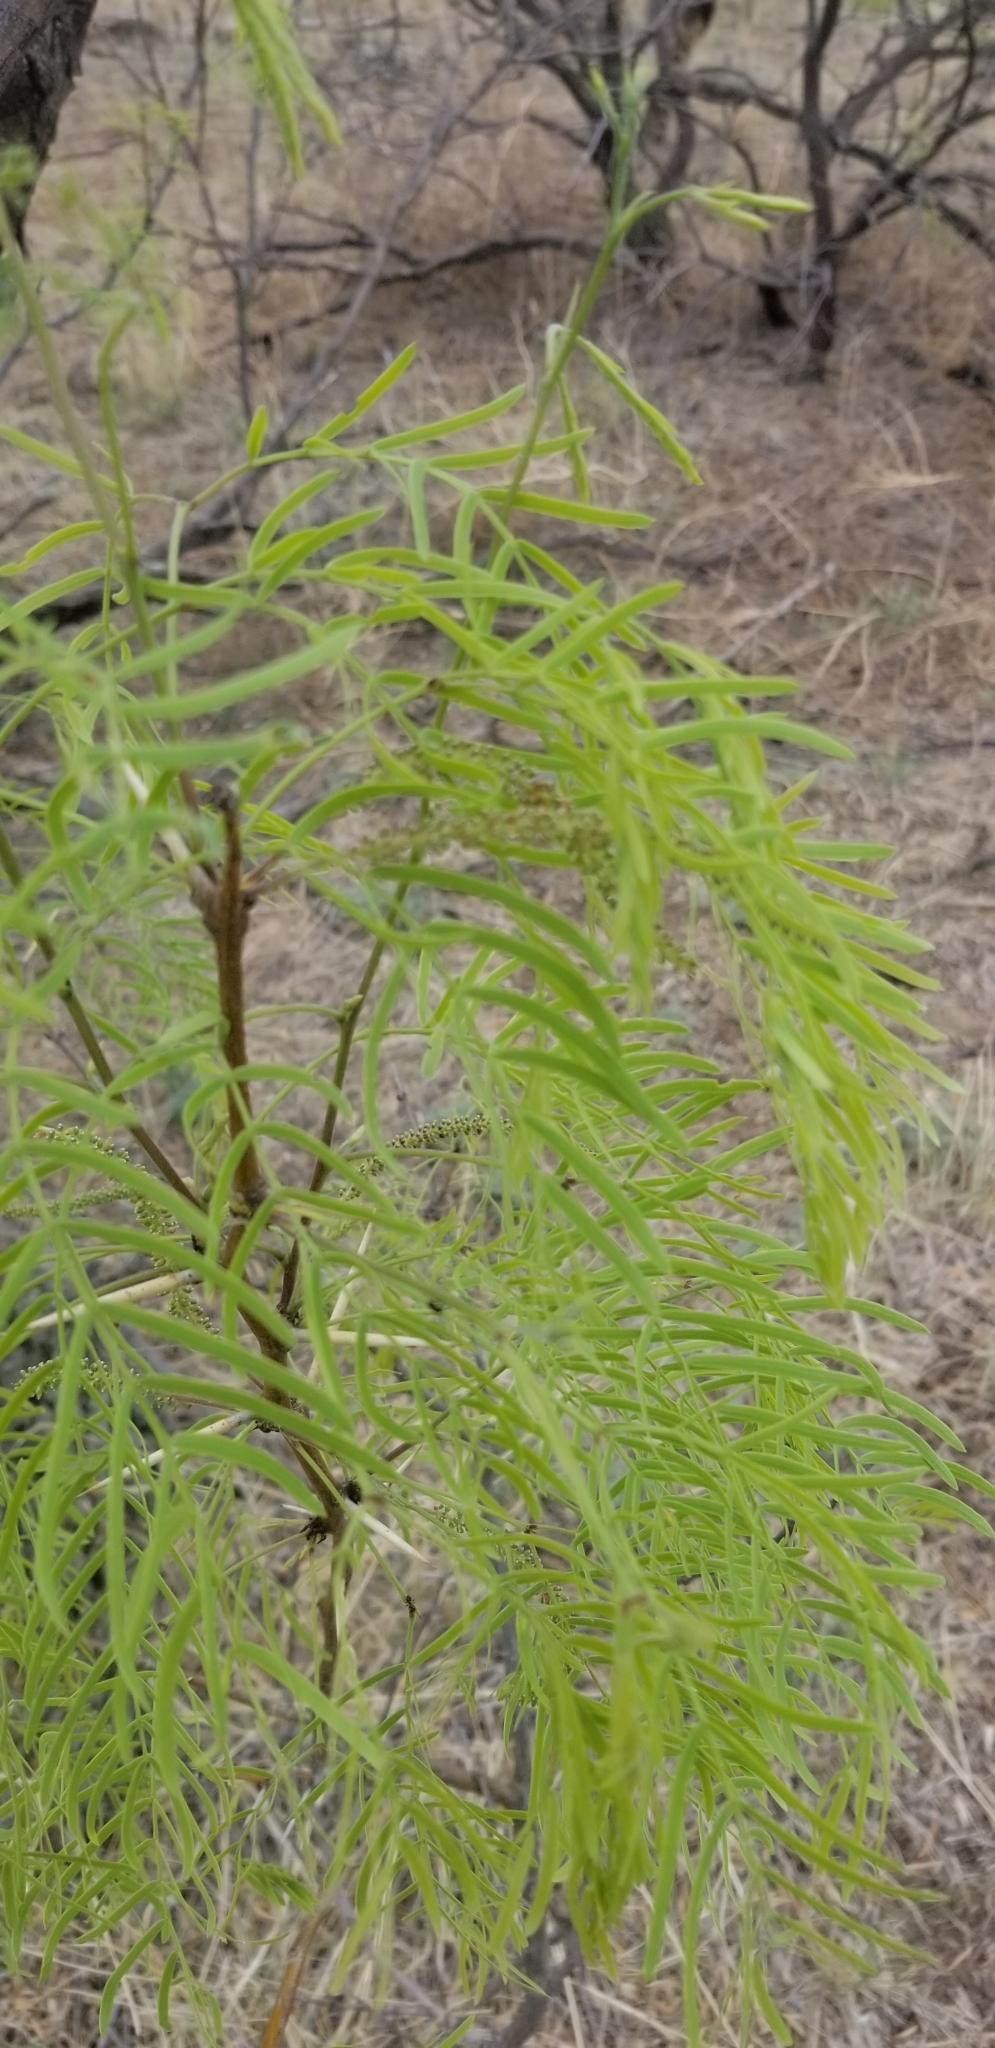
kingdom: Plantae
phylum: Tracheophyta
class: Magnoliopsida
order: Fabales
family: Fabaceae
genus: Prosopis
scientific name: Prosopis glandulosa
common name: Honey mesquite
